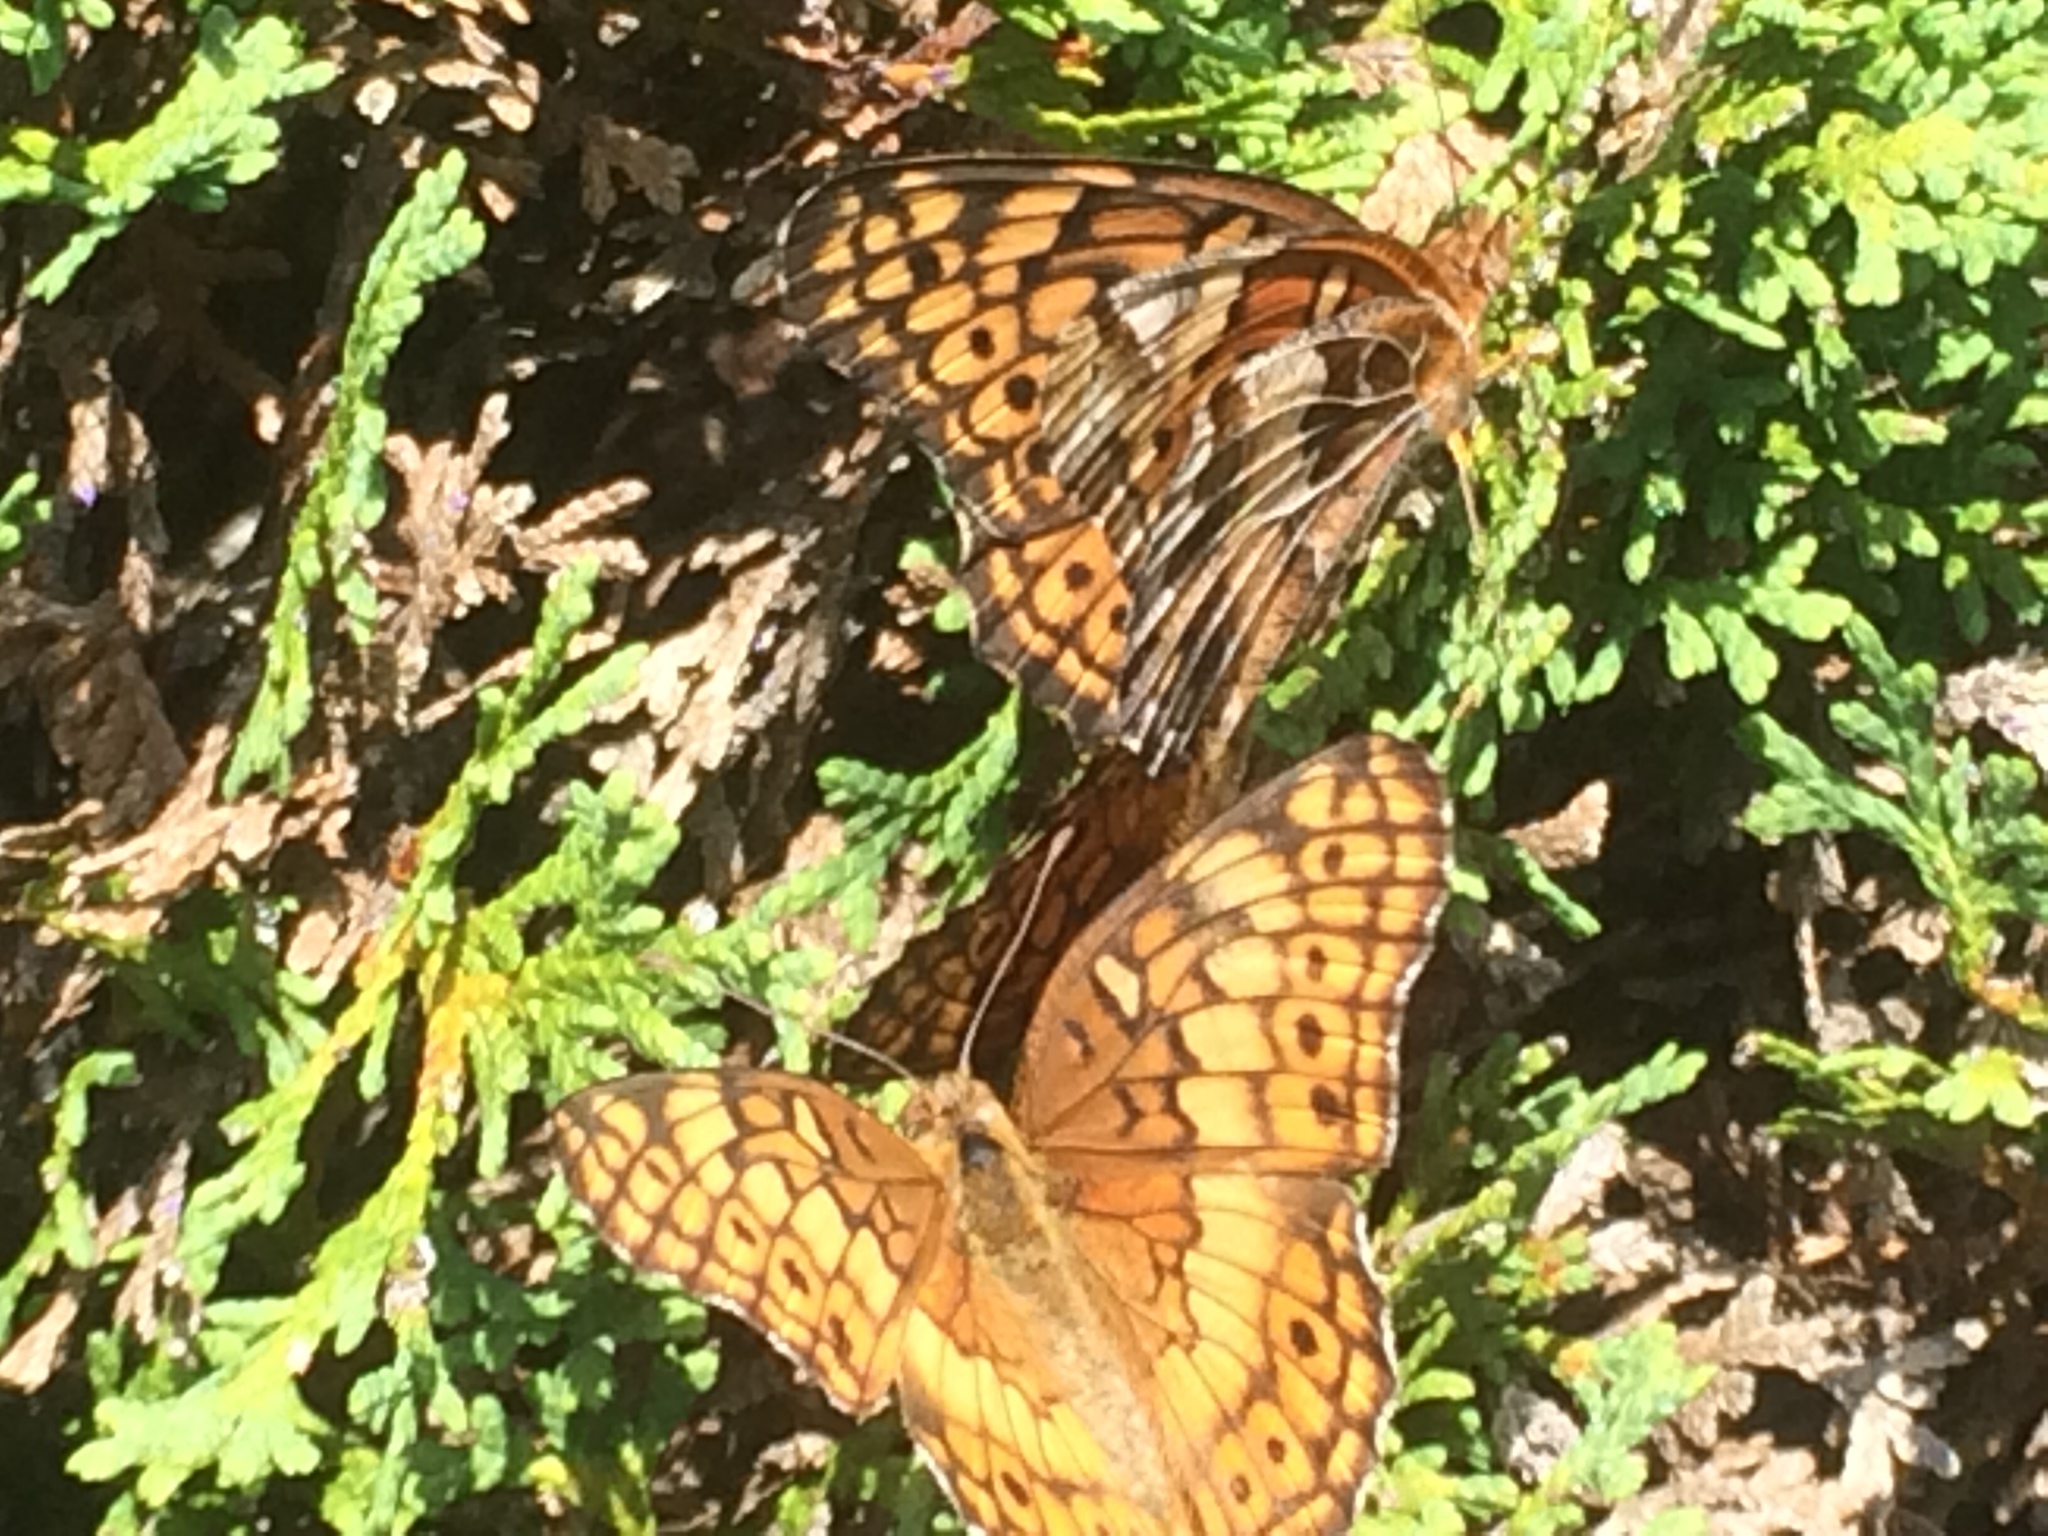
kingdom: Animalia
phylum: Arthropoda
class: Insecta
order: Lepidoptera
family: Nymphalidae
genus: Euptoieta
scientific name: Euptoieta claudia
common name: Variegated fritillary
